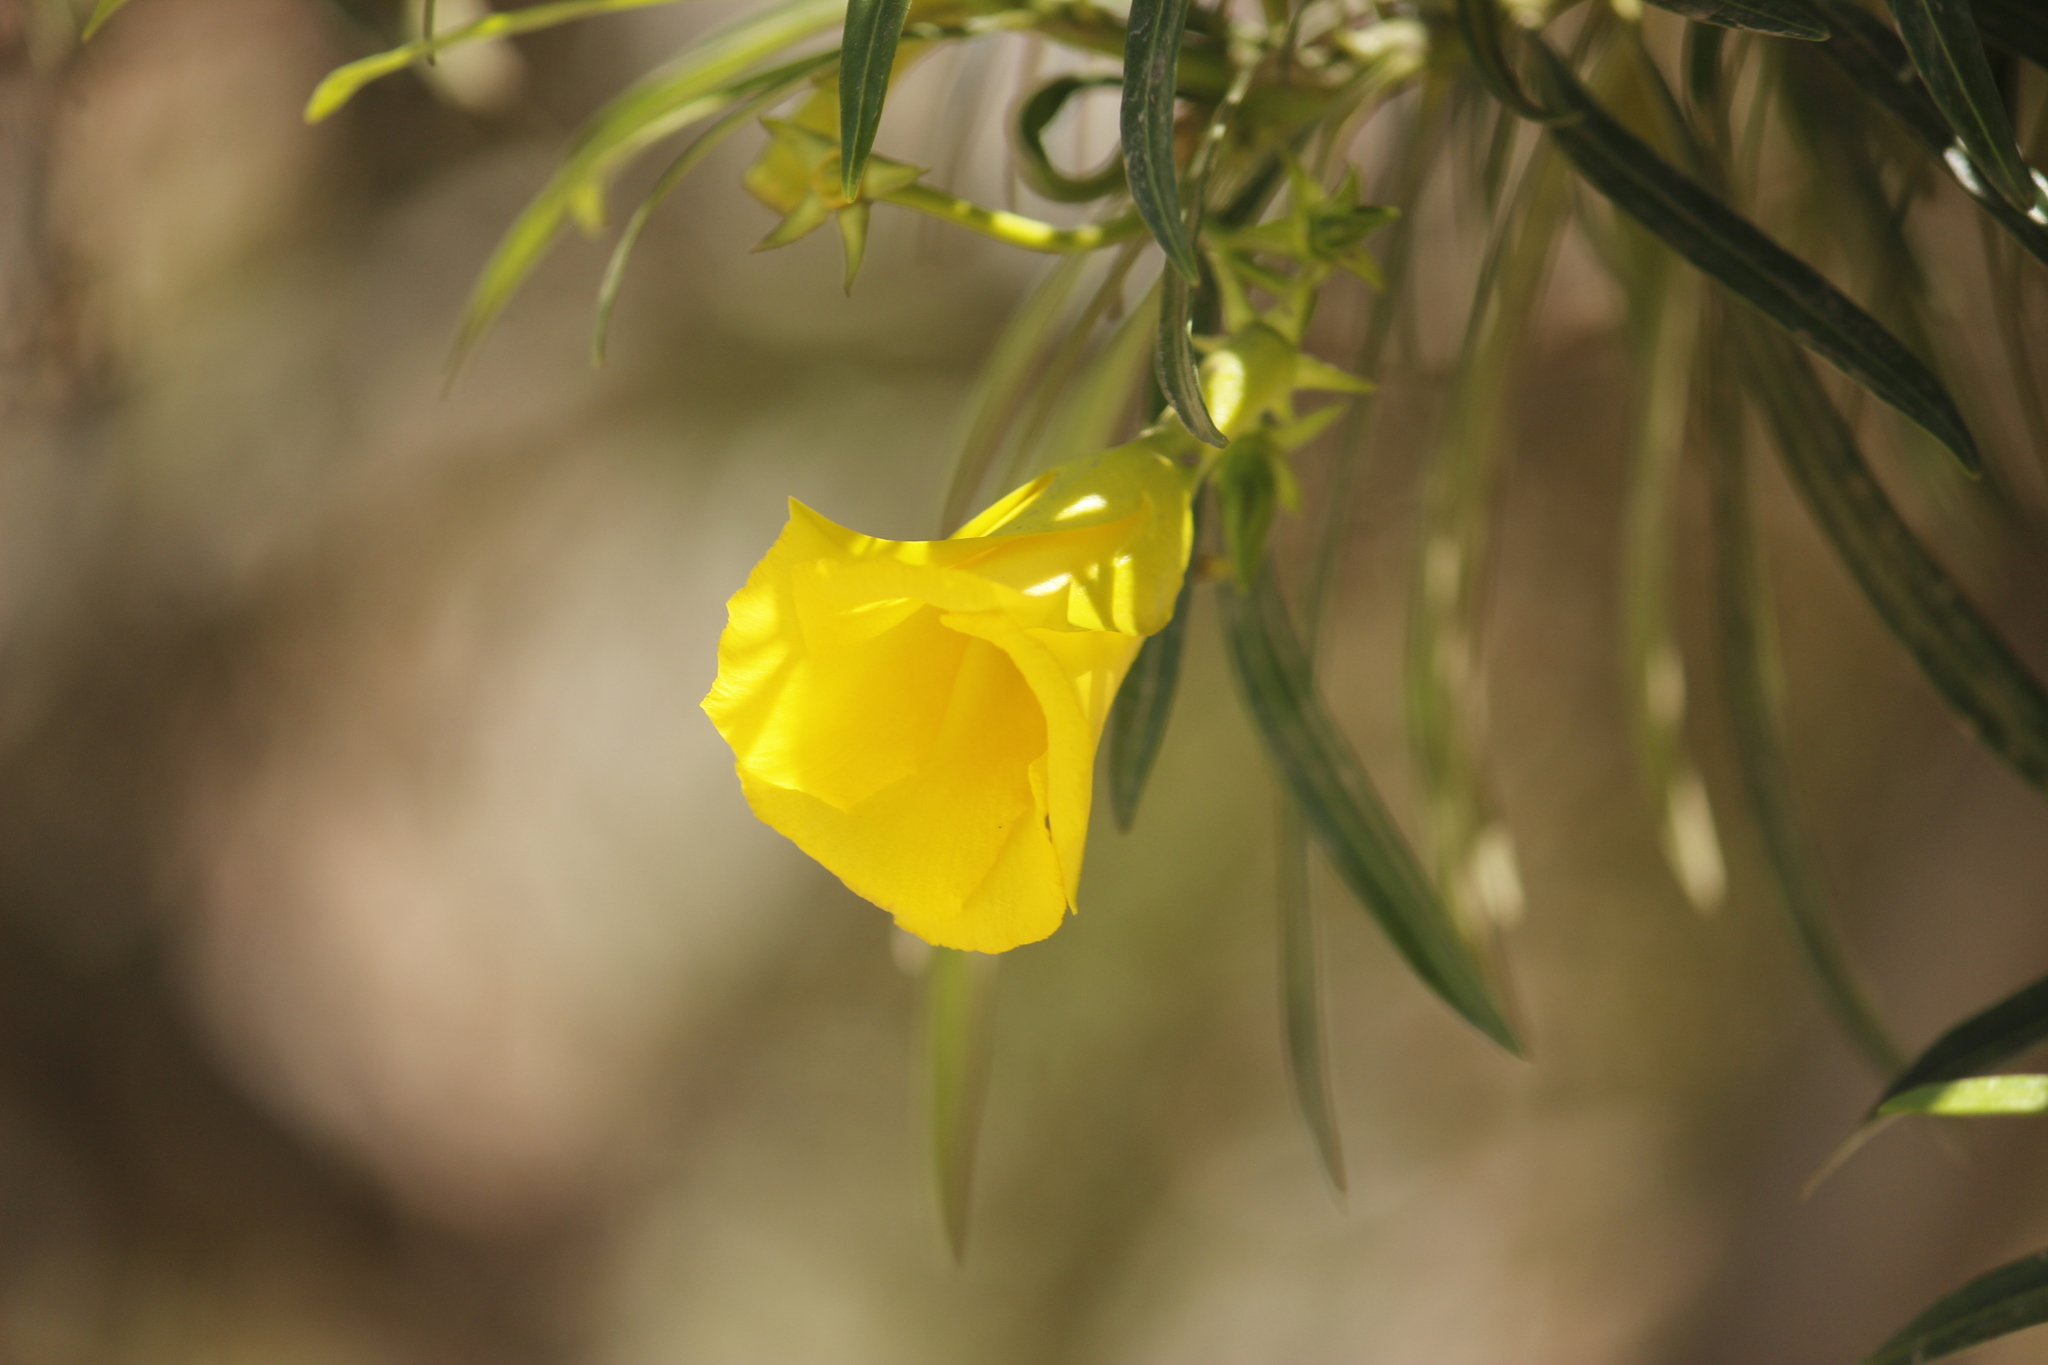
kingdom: Plantae
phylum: Tracheophyta
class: Magnoliopsida
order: Gentianales
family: Apocynaceae
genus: Cascabela
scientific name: Cascabela thevetia
